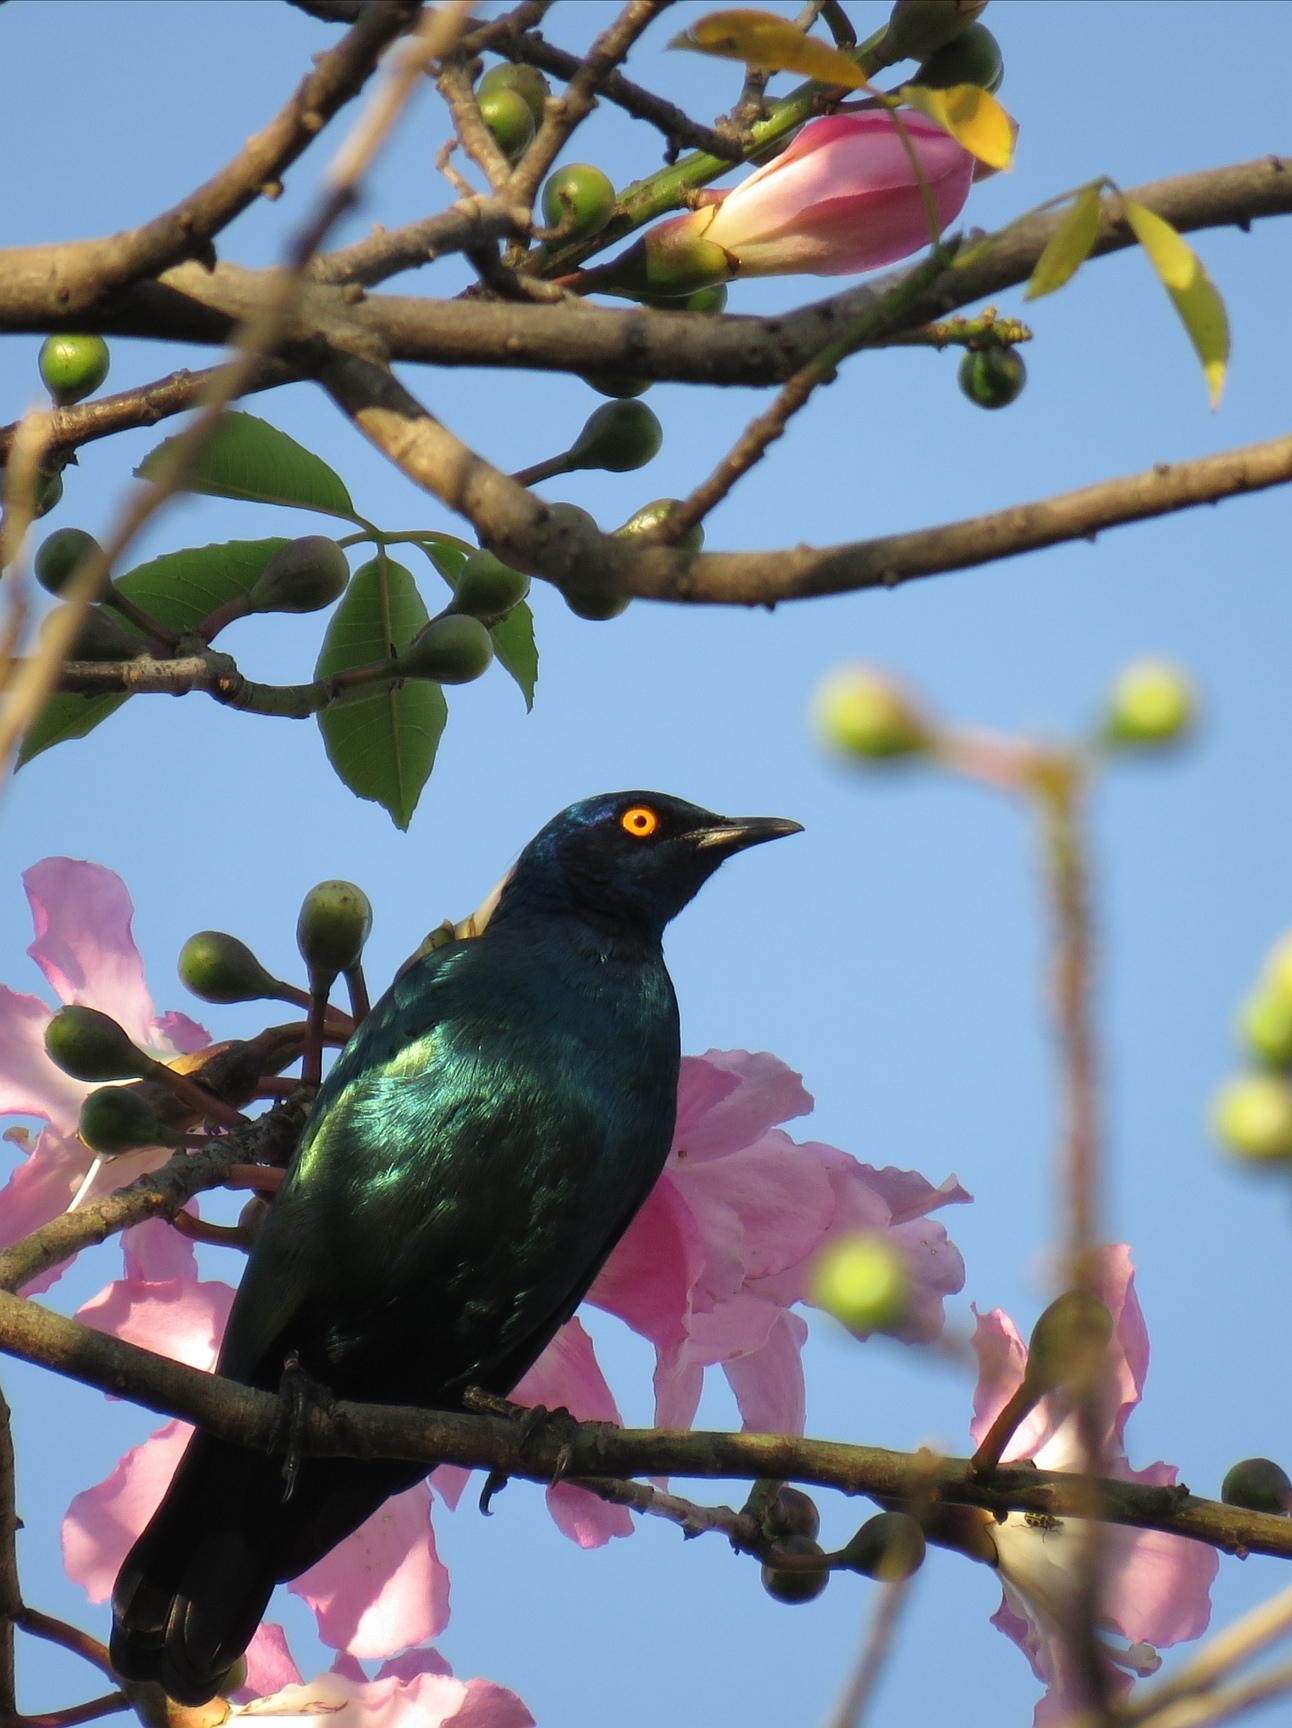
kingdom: Animalia
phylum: Chordata
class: Aves
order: Passeriformes
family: Sturnidae
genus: Lamprotornis
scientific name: Lamprotornis nitens
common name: Cape starling
